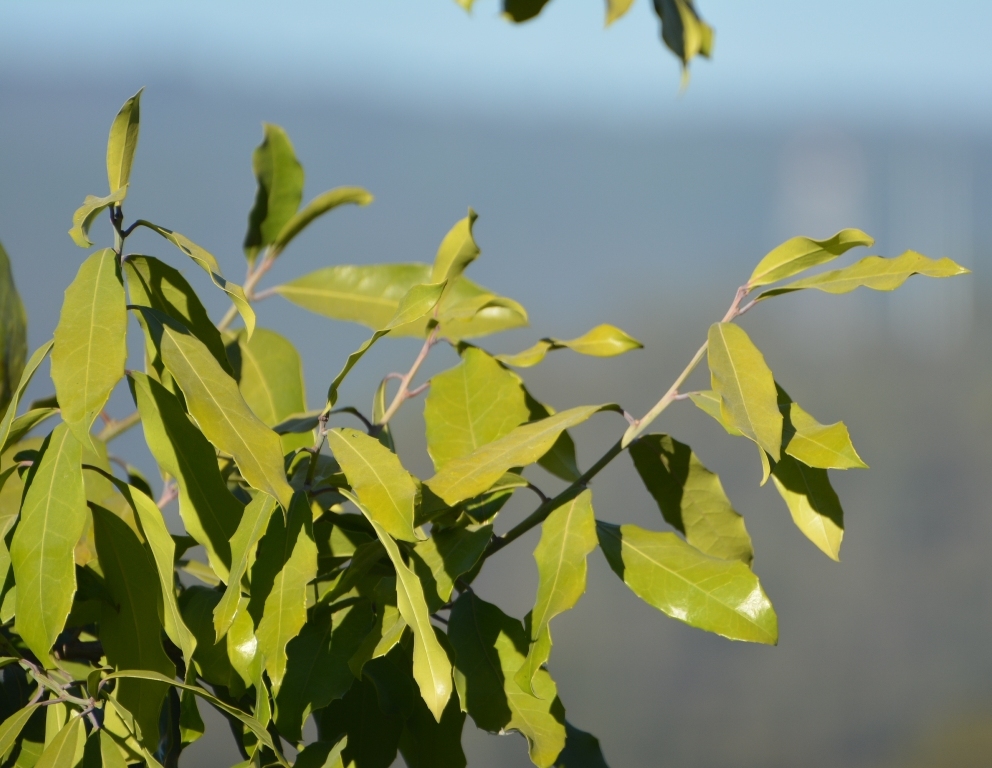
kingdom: Plantae
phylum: Tracheophyta
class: Magnoliopsida
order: Malpighiales
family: Salicaceae
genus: Olmediella
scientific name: Olmediella betschleriana
